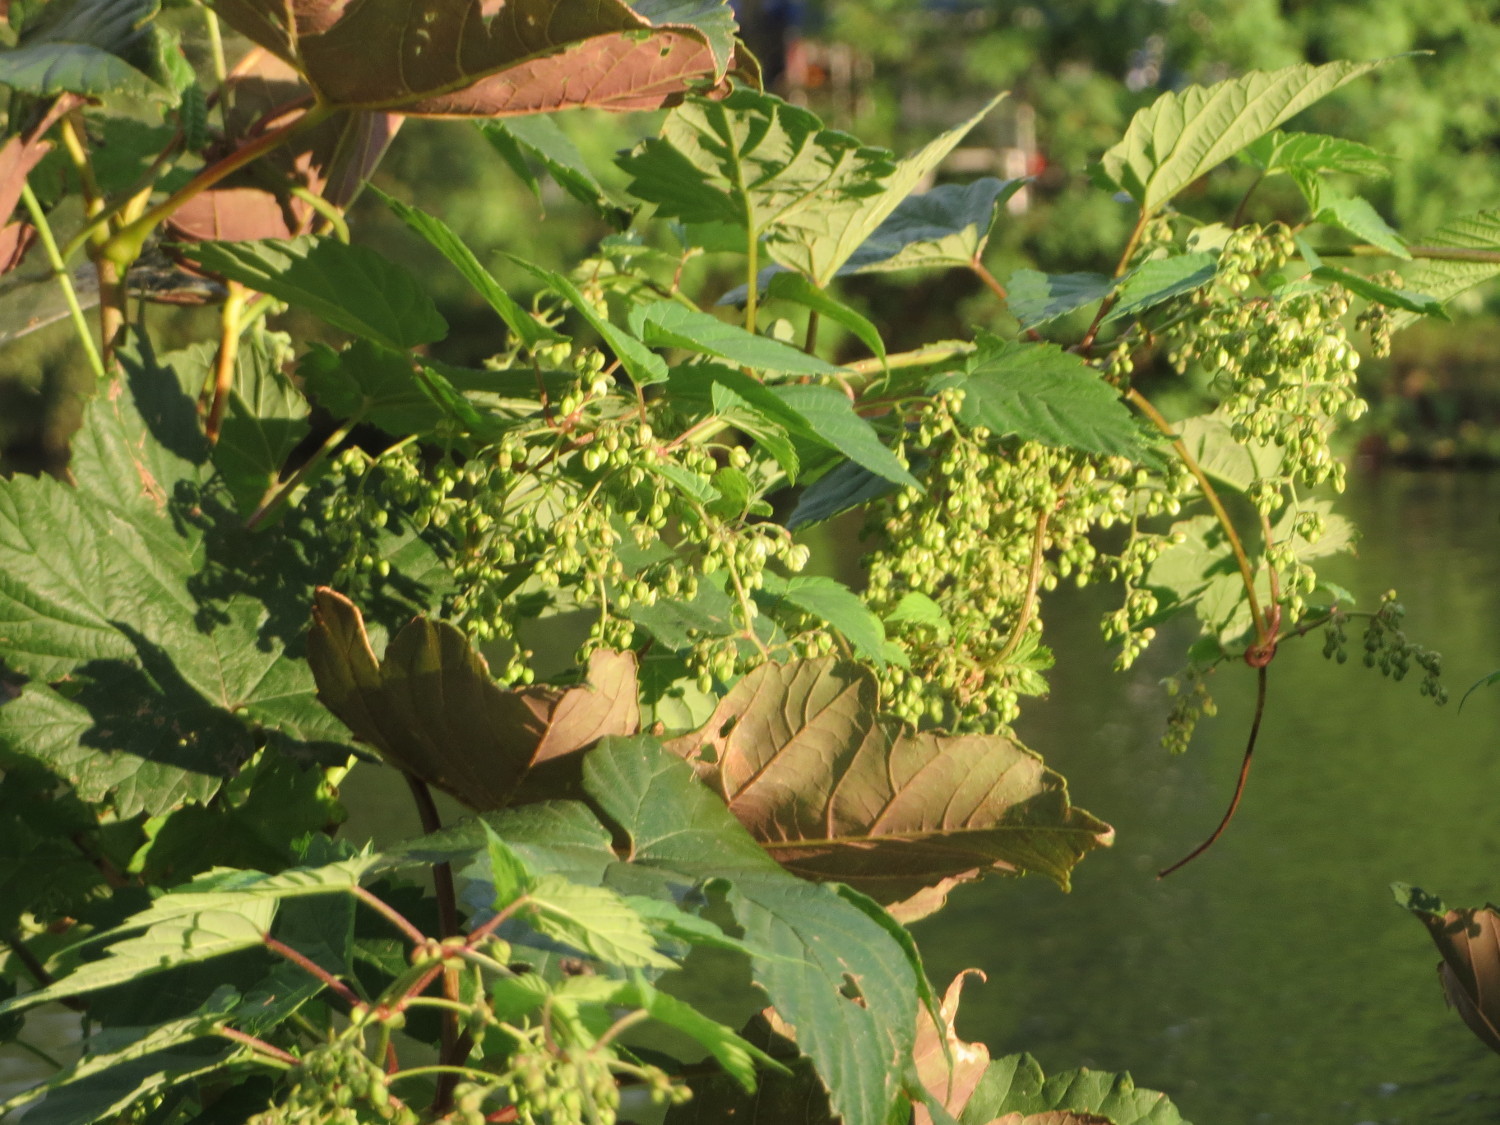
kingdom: Plantae
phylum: Tracheophyta
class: Magnoliopsida
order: Rosales
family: Cannabaceae
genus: Humulus
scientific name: Humulus lupulus
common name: Hop
